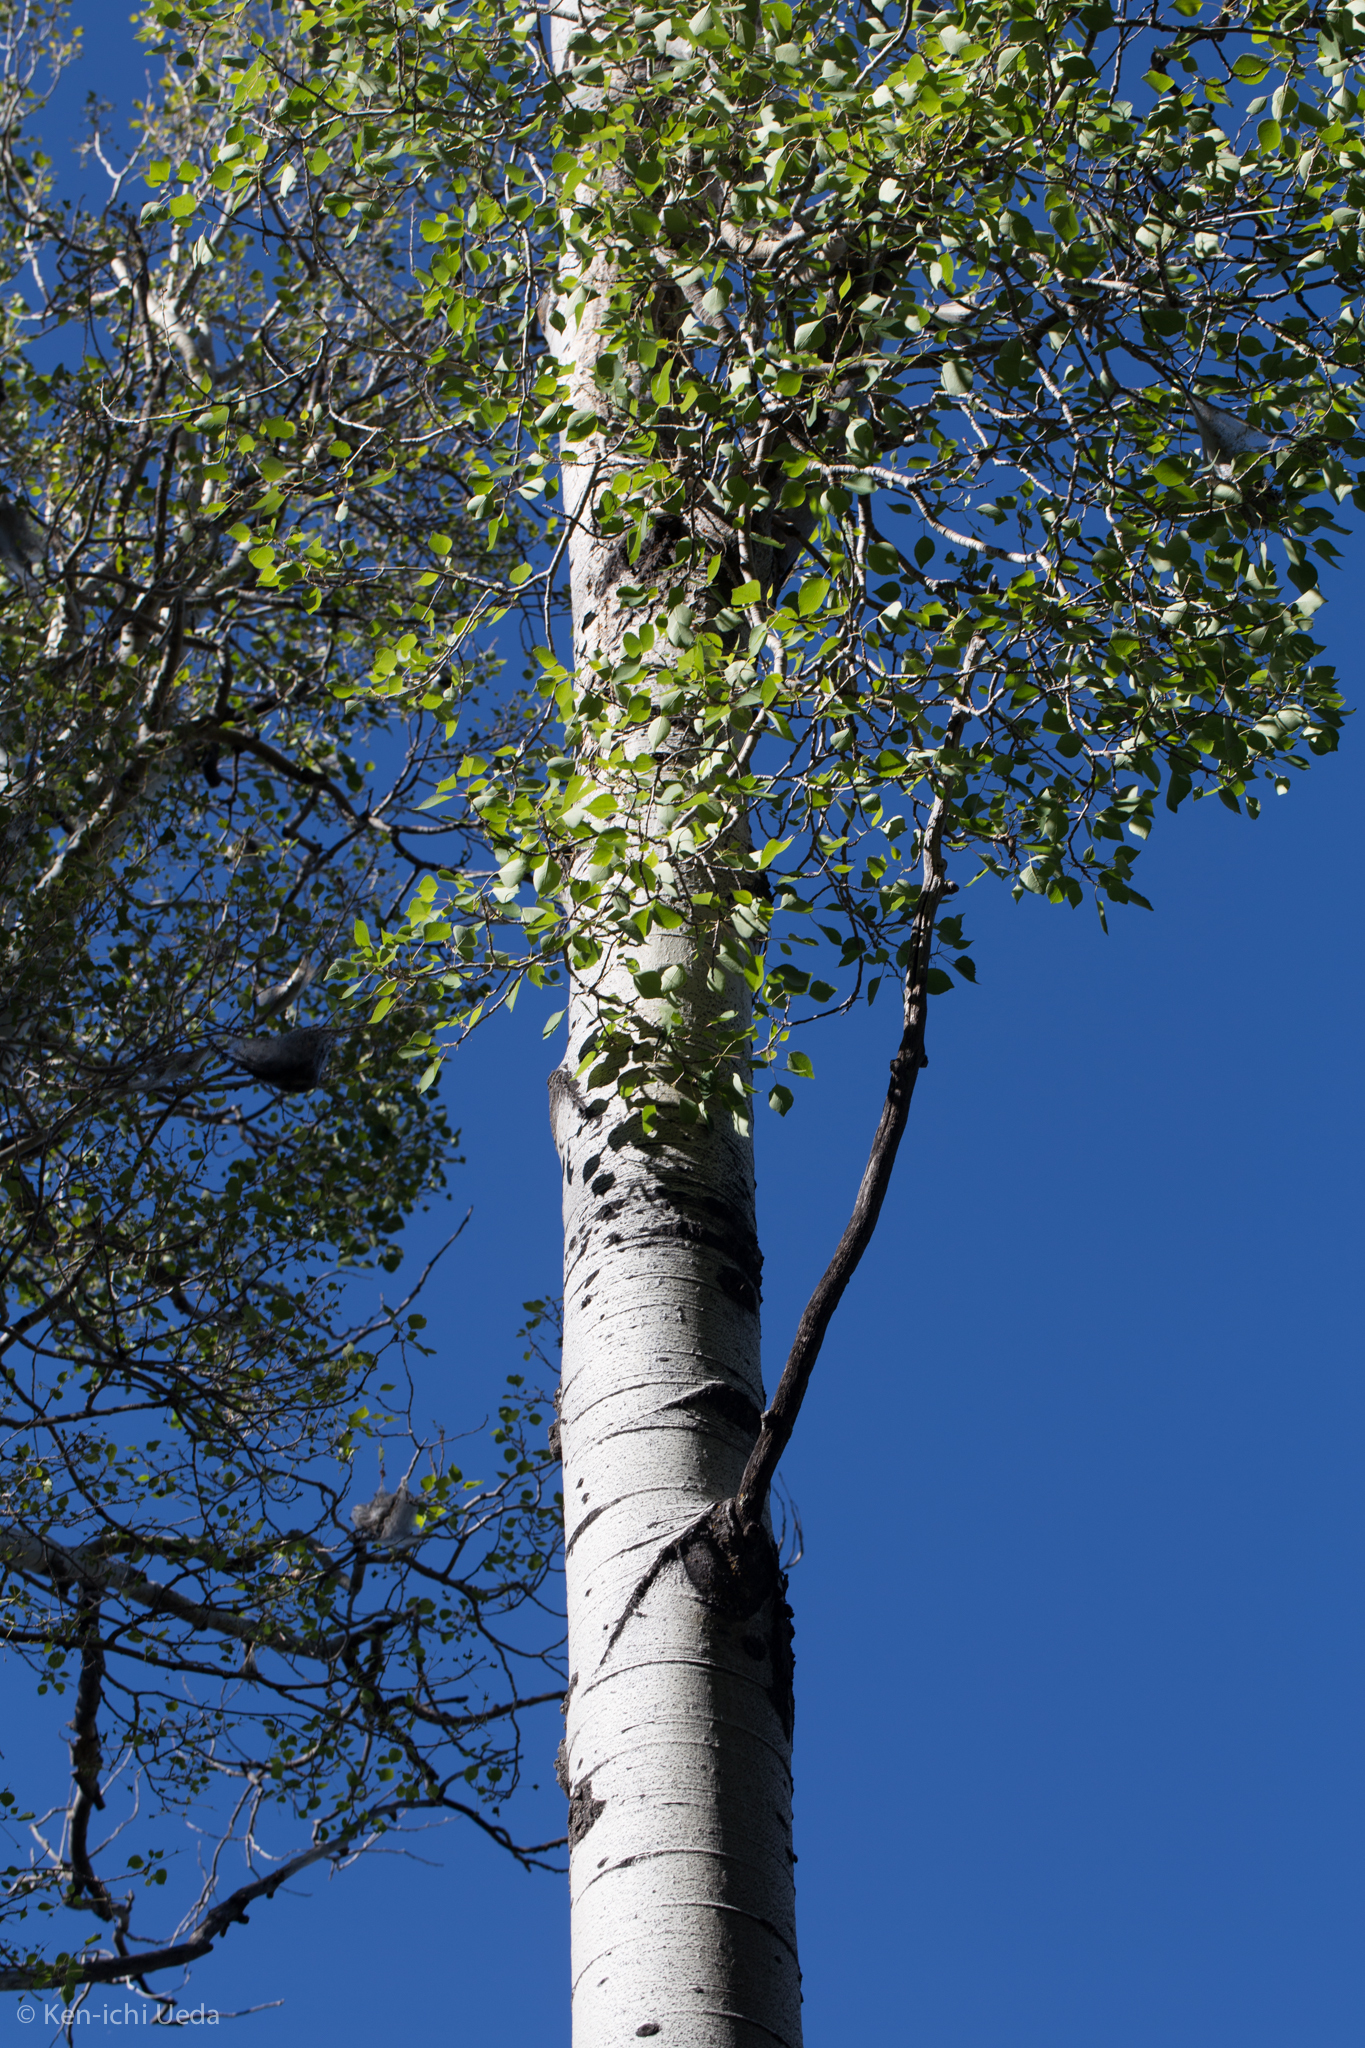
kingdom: Plantae
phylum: Tracheophyta
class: Magnoliopsida
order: Malpighiales
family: Salicaceae
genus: Populus
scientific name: Populus tremuloides
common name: Quaking aspen
